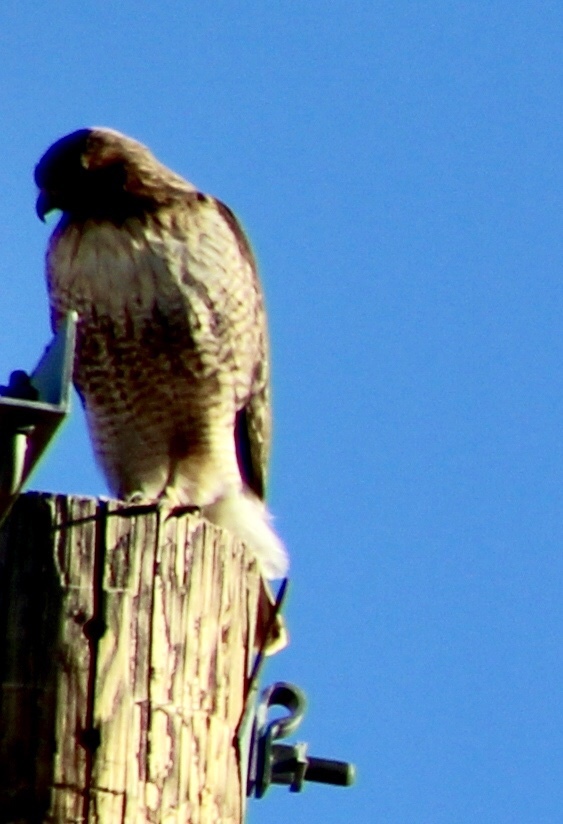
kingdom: Animalia
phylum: Chordata
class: Aves
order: Accipitriformes
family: Accipitridae
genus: Buteo
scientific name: Buteo jamaicensis
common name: Red-tailed hawk
